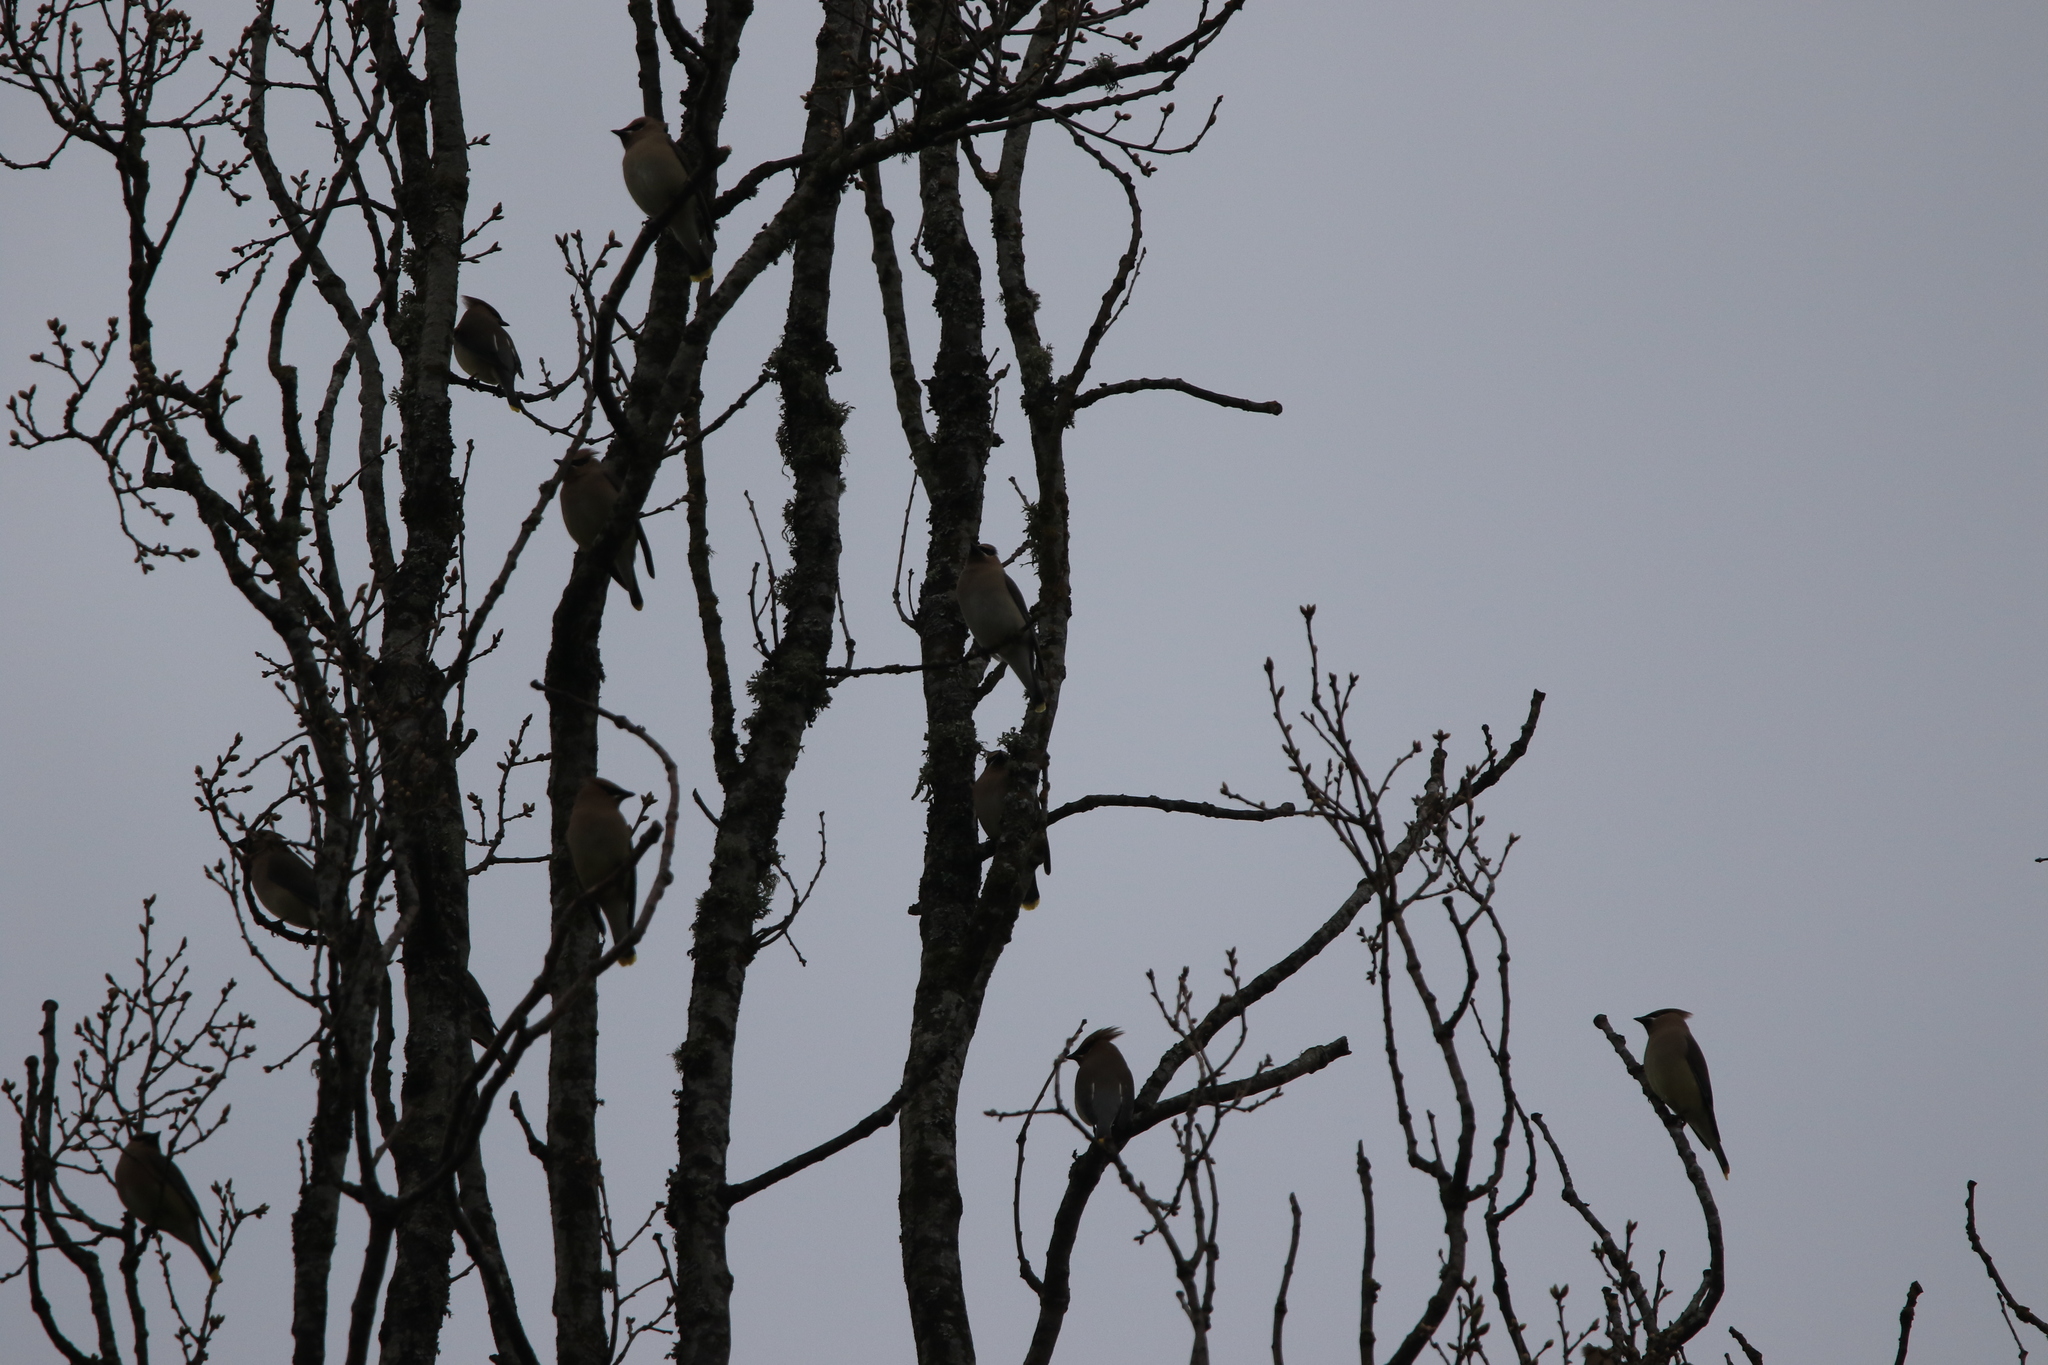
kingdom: Animalia
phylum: Chordata
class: Aves
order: Passeriformes
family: Bombycillidae
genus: Bombycilla
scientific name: Bombycilla cedrorum
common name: Cedar waxwing
